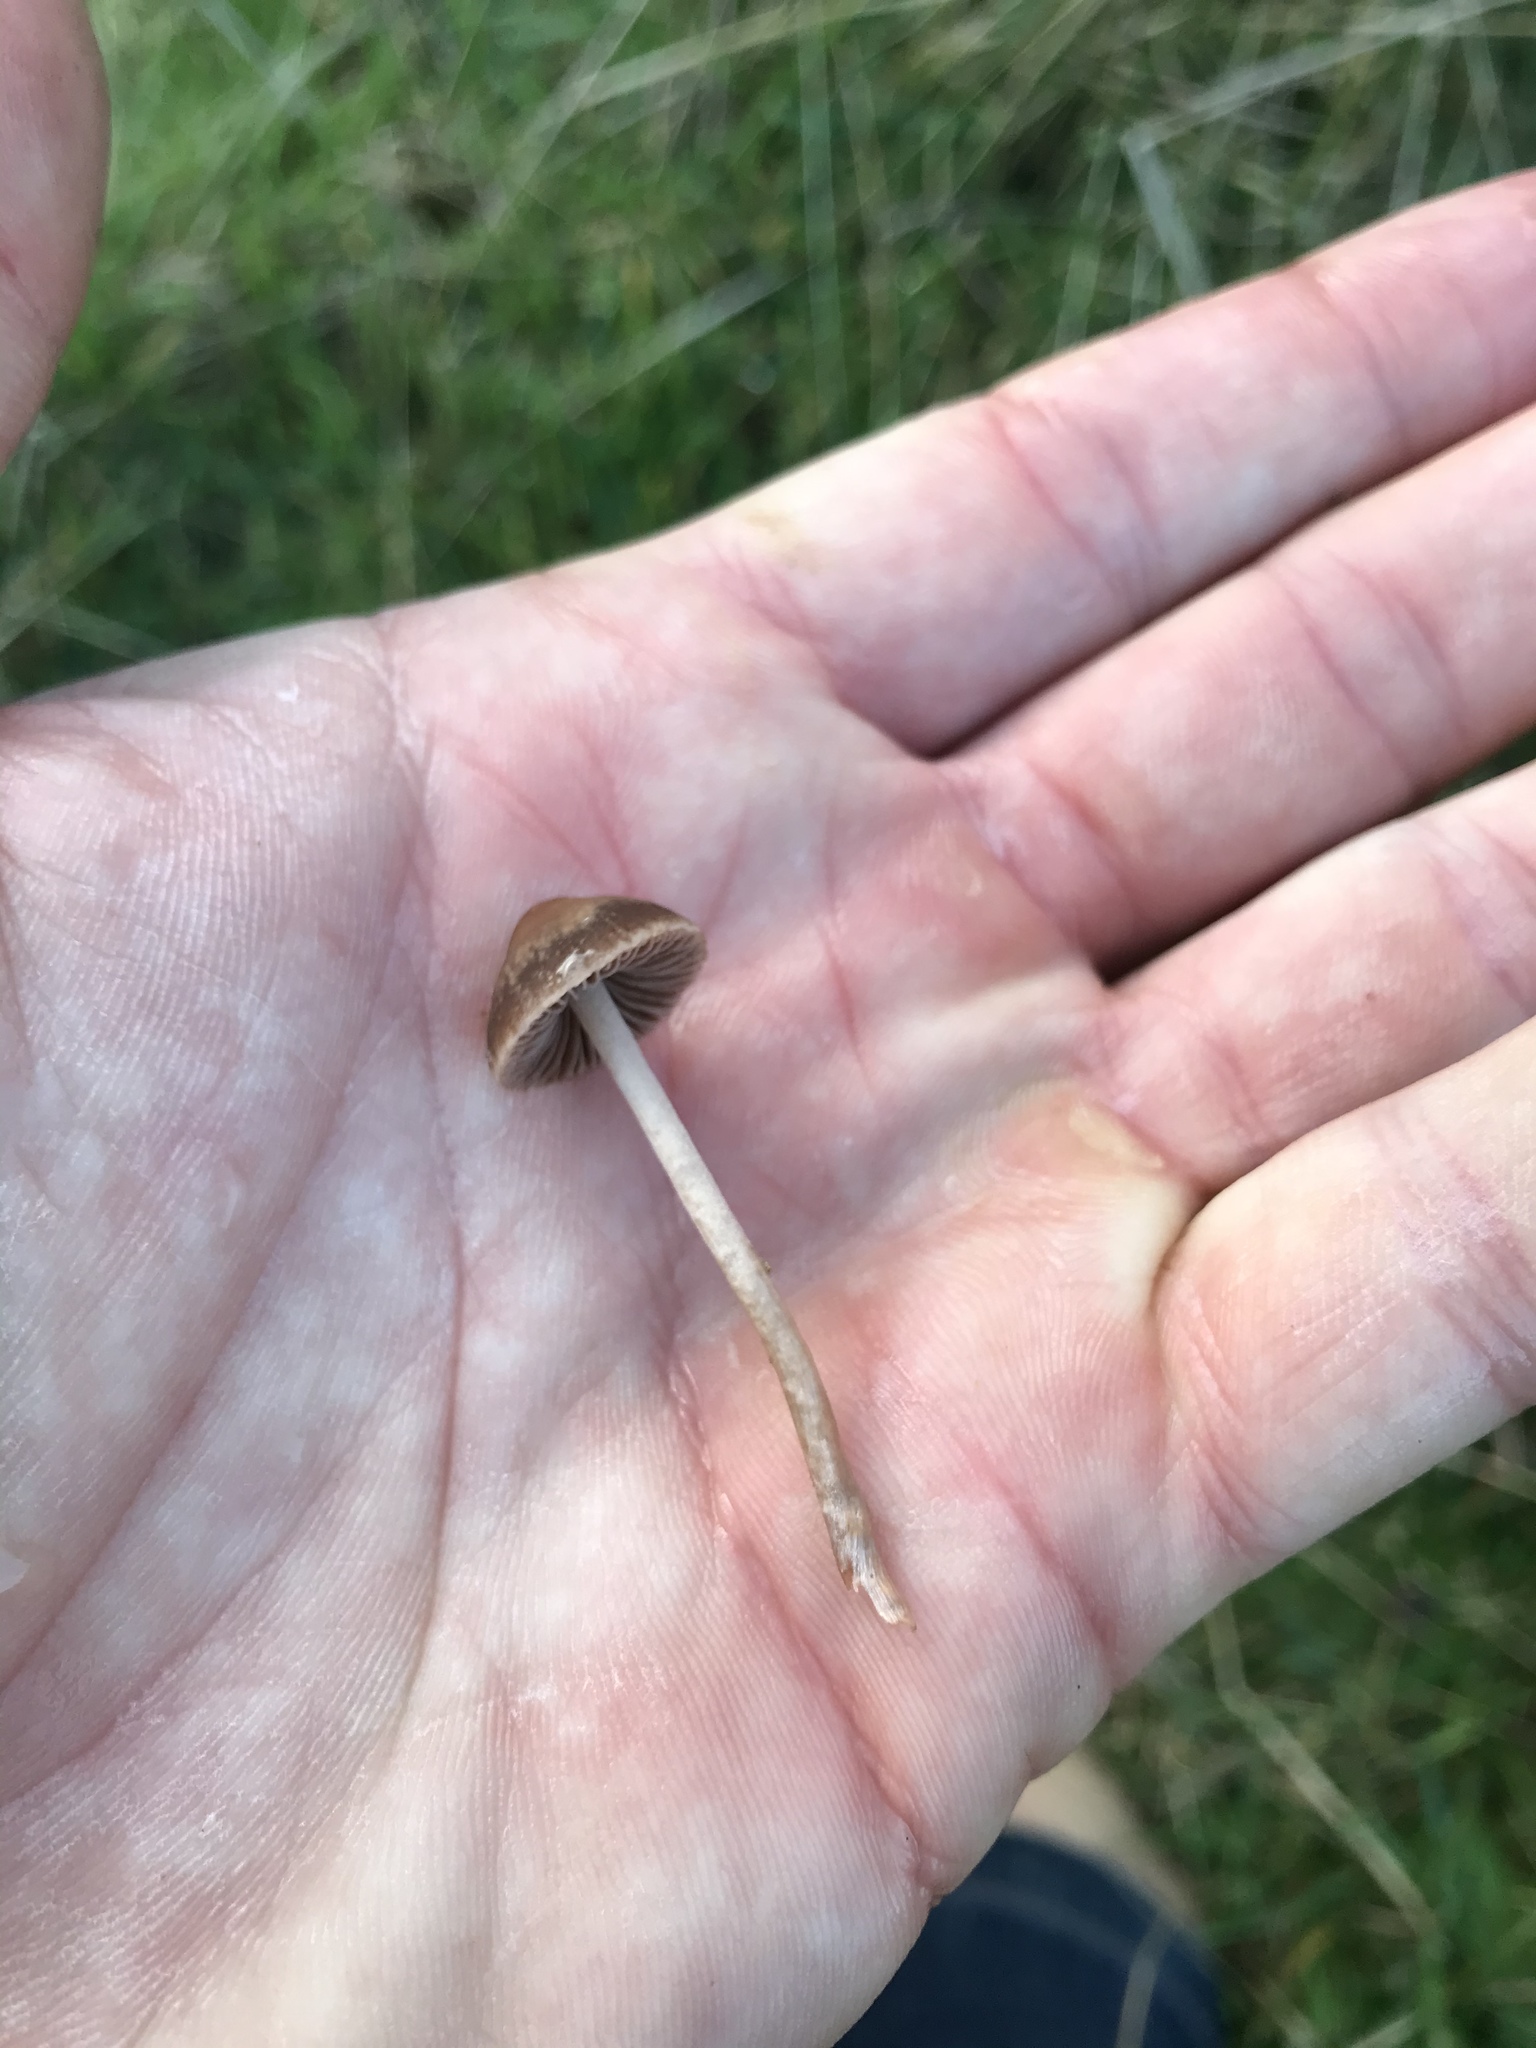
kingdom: Fungi
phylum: Basidiomycota
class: Agaricomycetes
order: Agaricales
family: Bolbitiaceae
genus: Panaeolina
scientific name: Panaeolina foenisecii
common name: Brown hay cap
